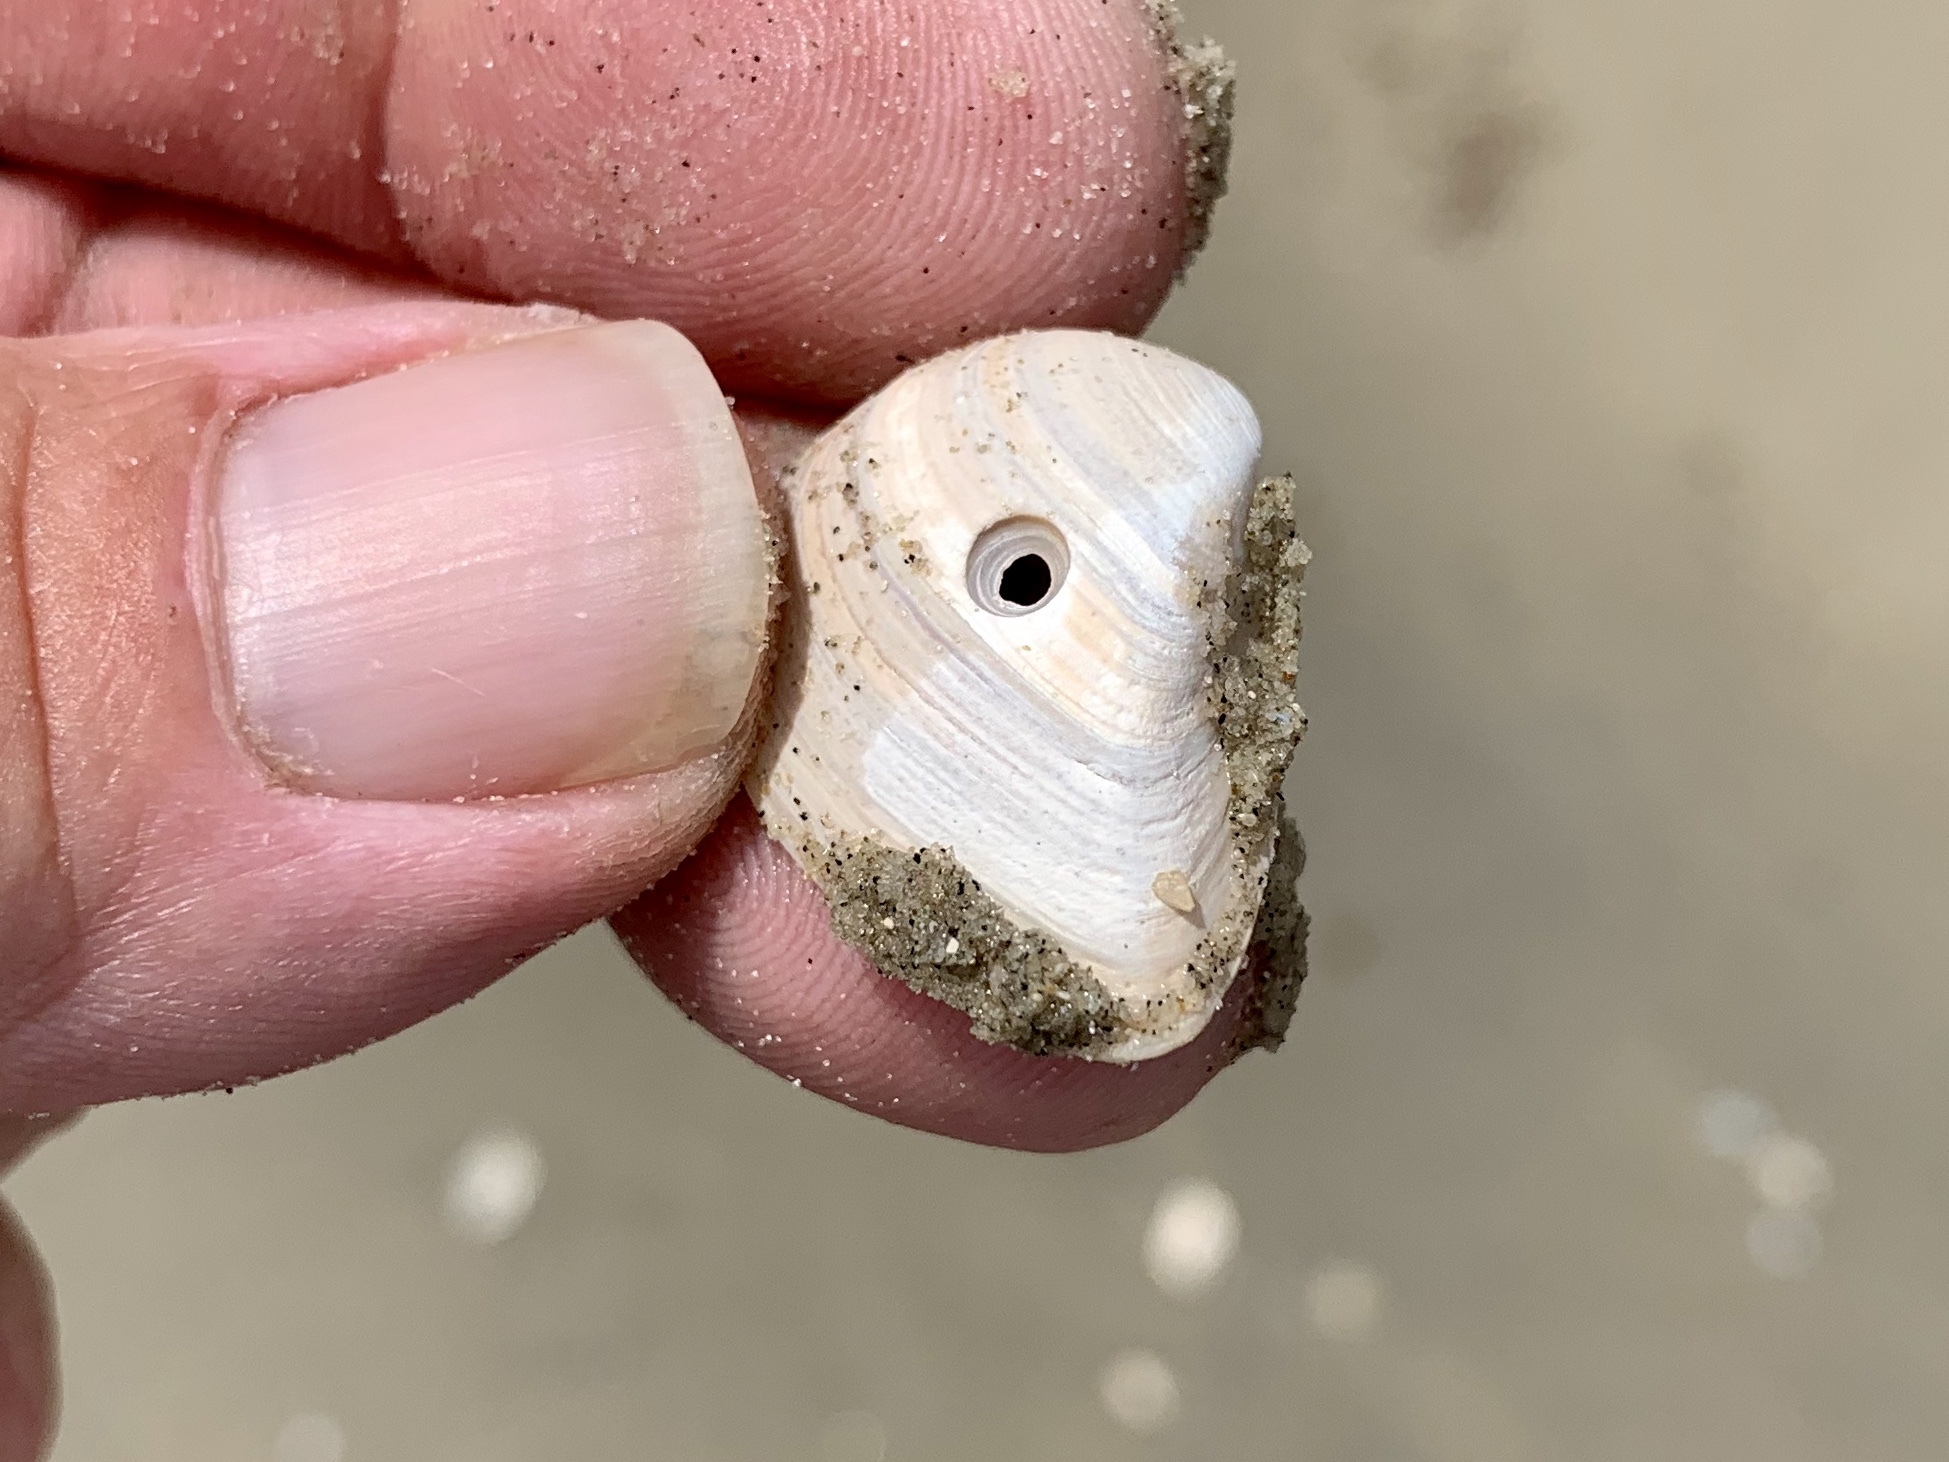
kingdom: Animalia
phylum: Mollusca
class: Bivalvia
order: Venerida
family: Mactridae
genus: Rangia
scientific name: Rangia flexuosa
